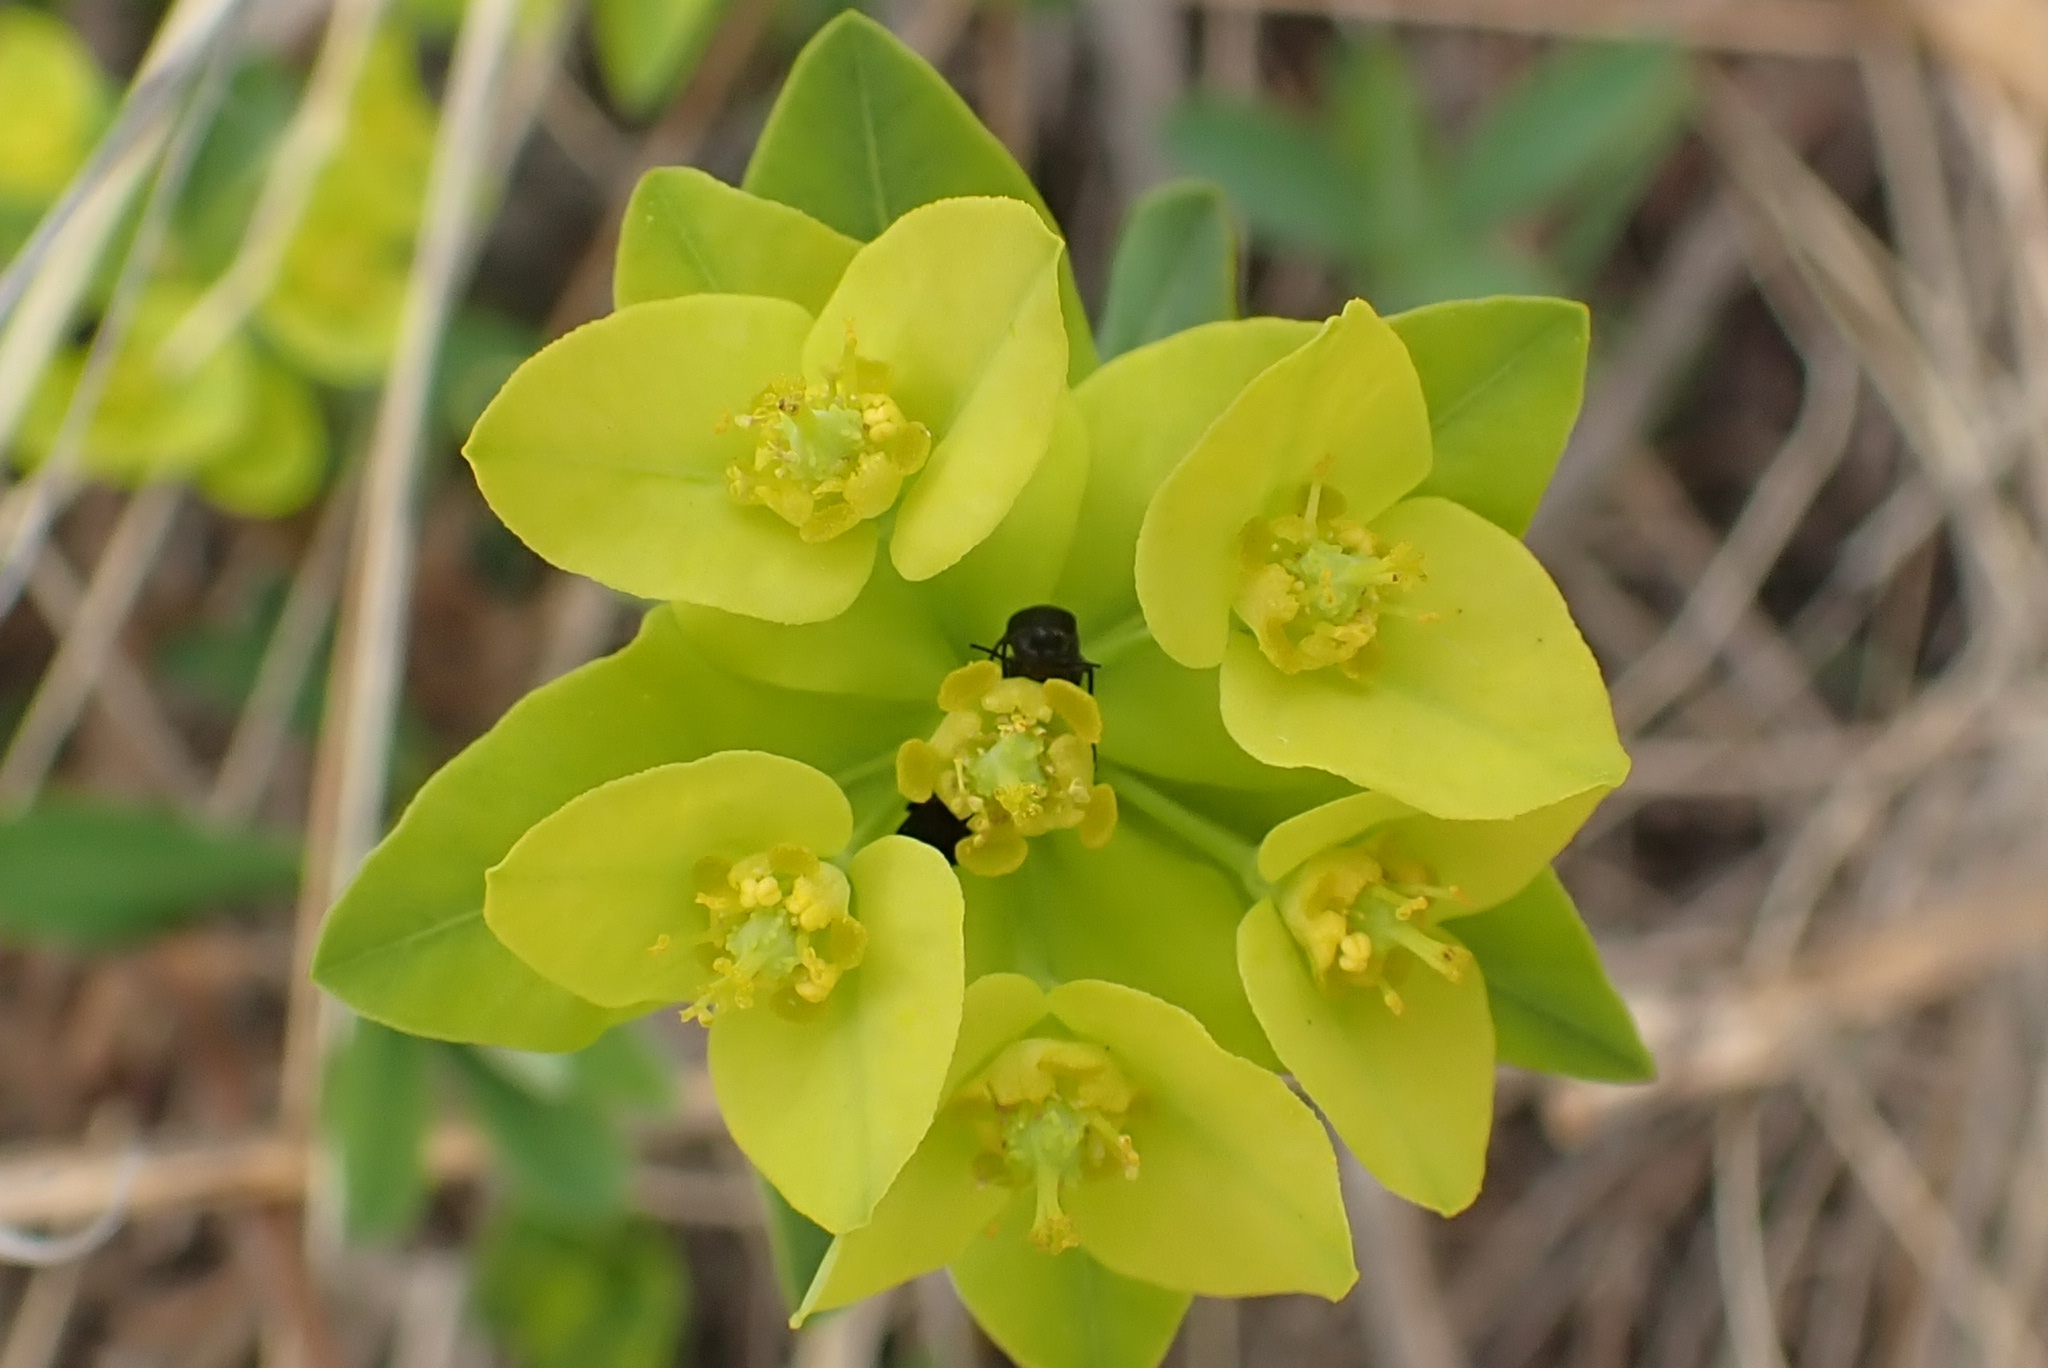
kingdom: Plantae
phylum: Tracheophyta
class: Magnoliopsida
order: Malpighiales
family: Euphorbiaceae
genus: Euphorbia
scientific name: Euphorbia altaica
